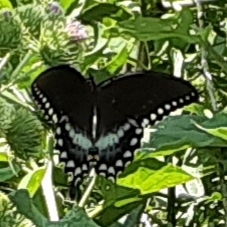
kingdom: Animalia
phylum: Arthropoda
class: Insecta
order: Lepidoptera
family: Papilionidae
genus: Papilio
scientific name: Papilio troilus
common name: Spicebush swallowtail
